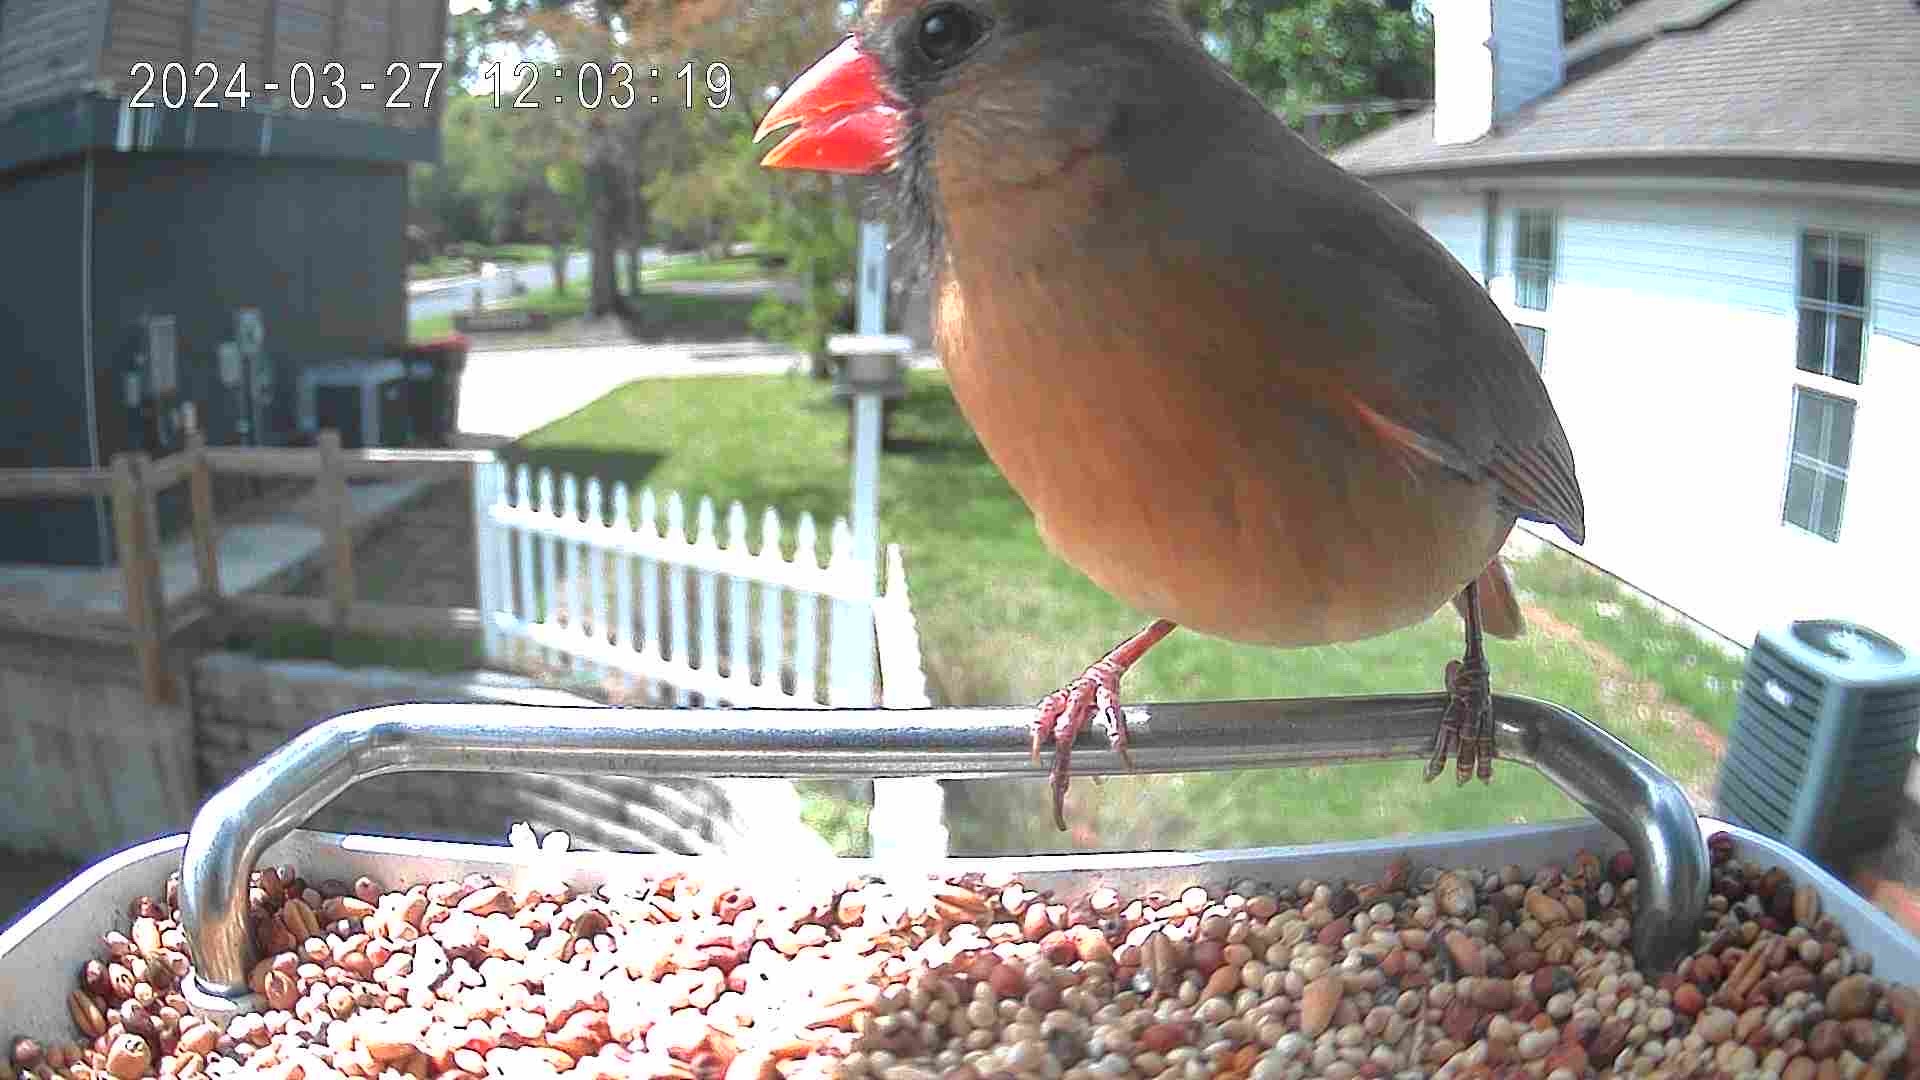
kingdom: Animalia
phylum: Chordata
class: Aves
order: Passeriformes
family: Cardinalidae
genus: Cardinalis
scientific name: Cardinalis cardinalis
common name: Northern cardinal
